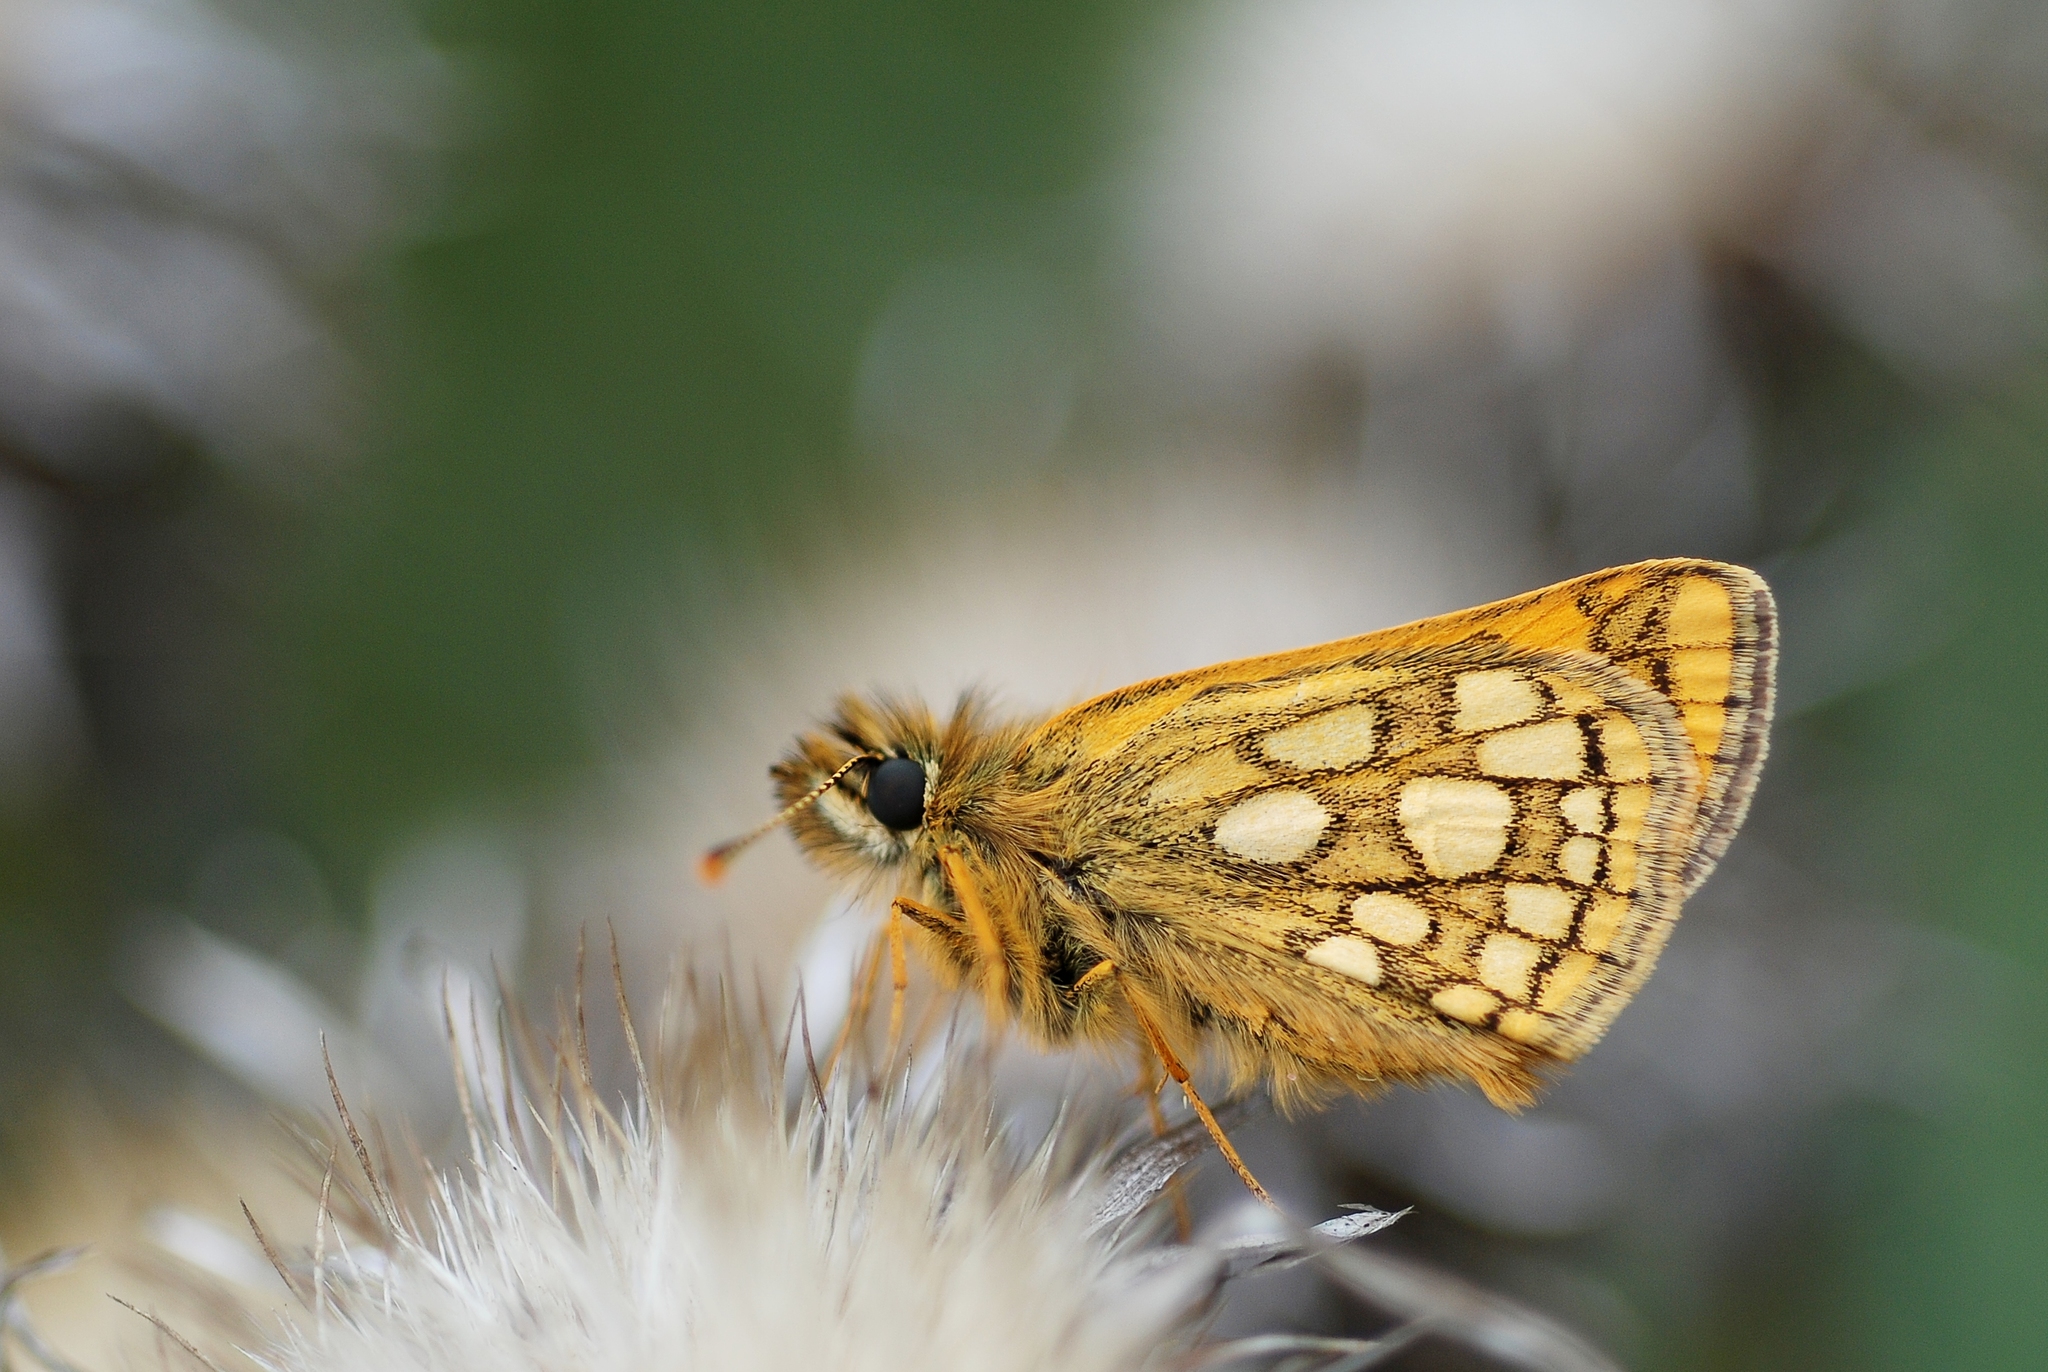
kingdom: Animalia
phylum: Arthropoda
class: Insecta
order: Lepidoptera
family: Hesperiidae
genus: Carterocephalus
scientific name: Carterocephalus palaemon
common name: Chequered skipper
